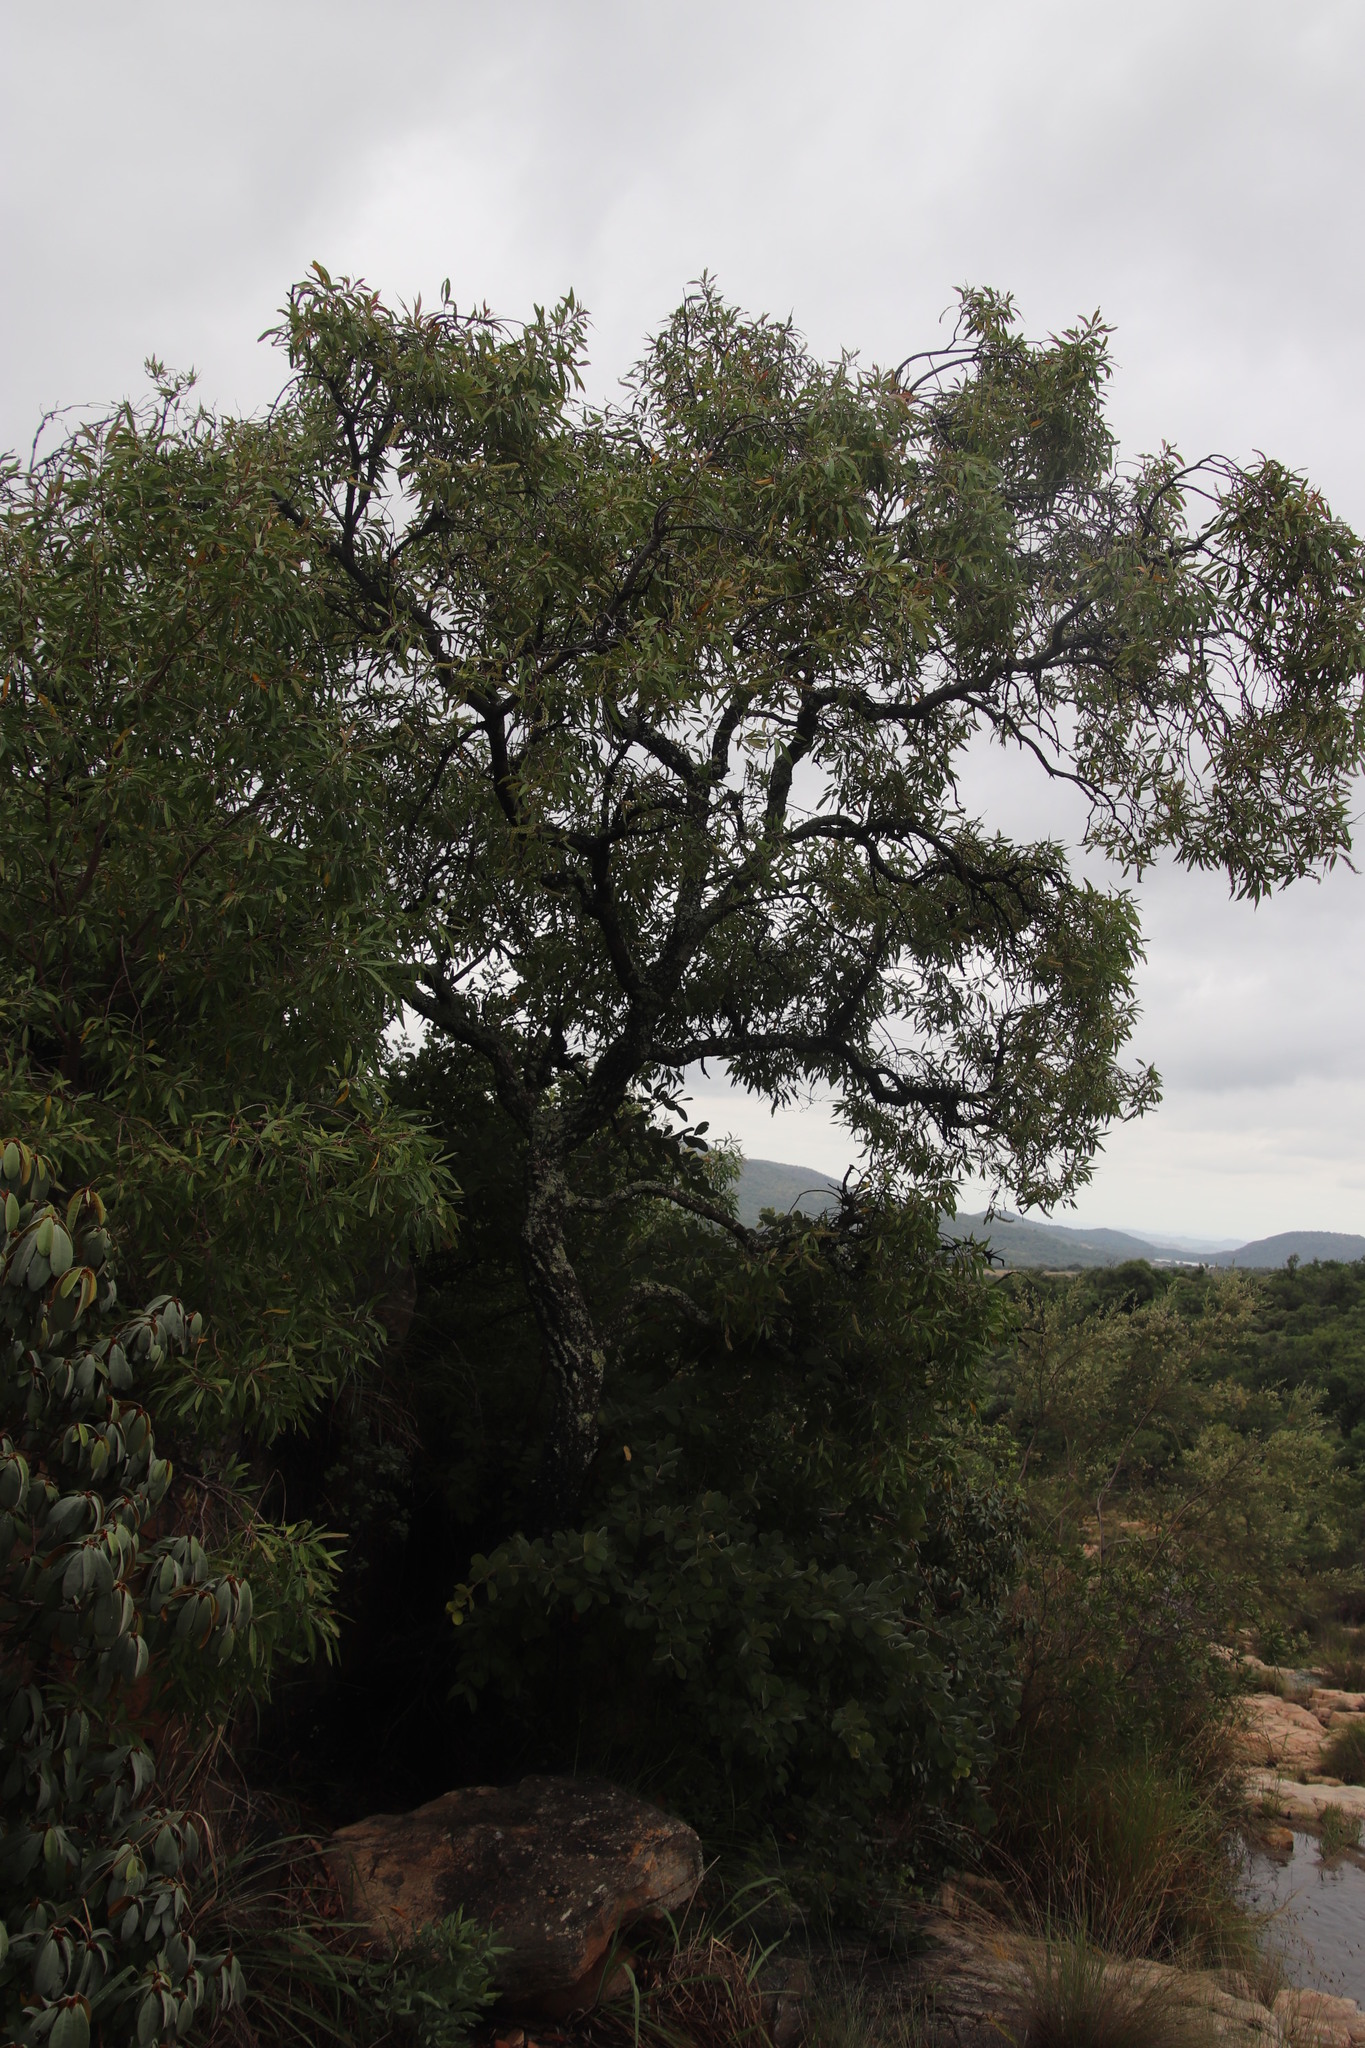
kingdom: Plantae
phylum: Tracheophyta
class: Magnoliopsida
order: Proteales
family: Proteaceae
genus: Faurea
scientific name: Faurea saligna
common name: African bean
